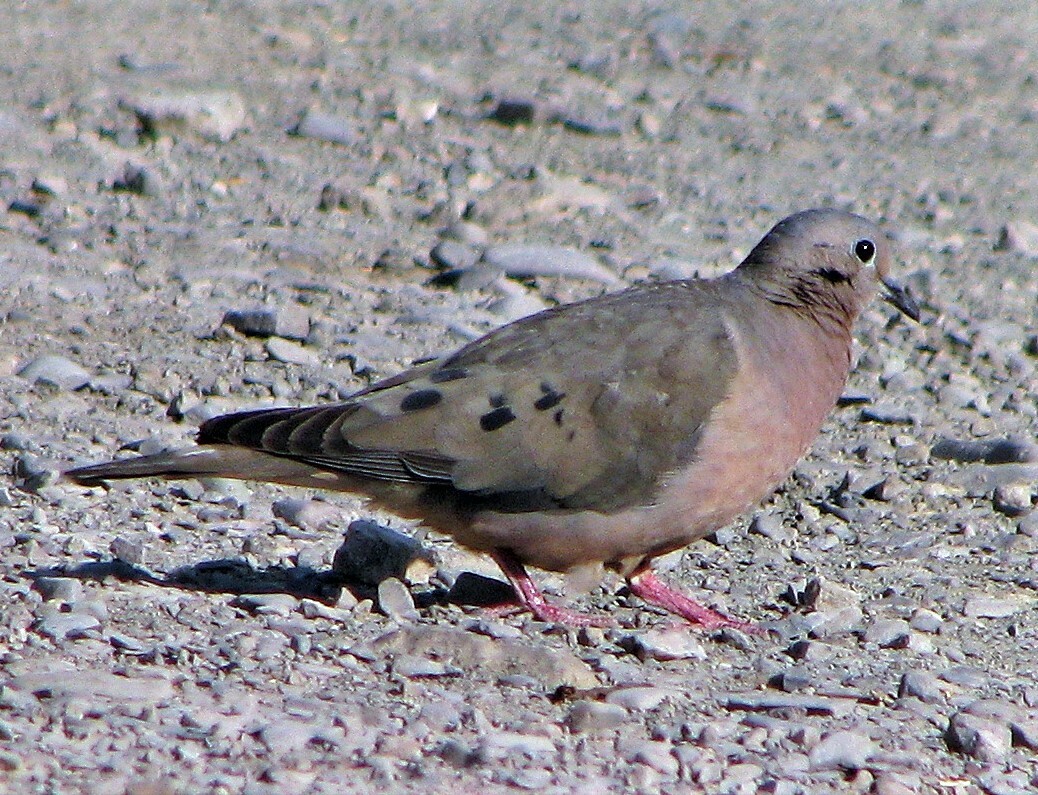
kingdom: Animalia
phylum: Chordata
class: Aves
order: Columbiformes
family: Columbidae
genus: Zenaida
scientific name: Zenaida auriculata
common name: Eared dove
